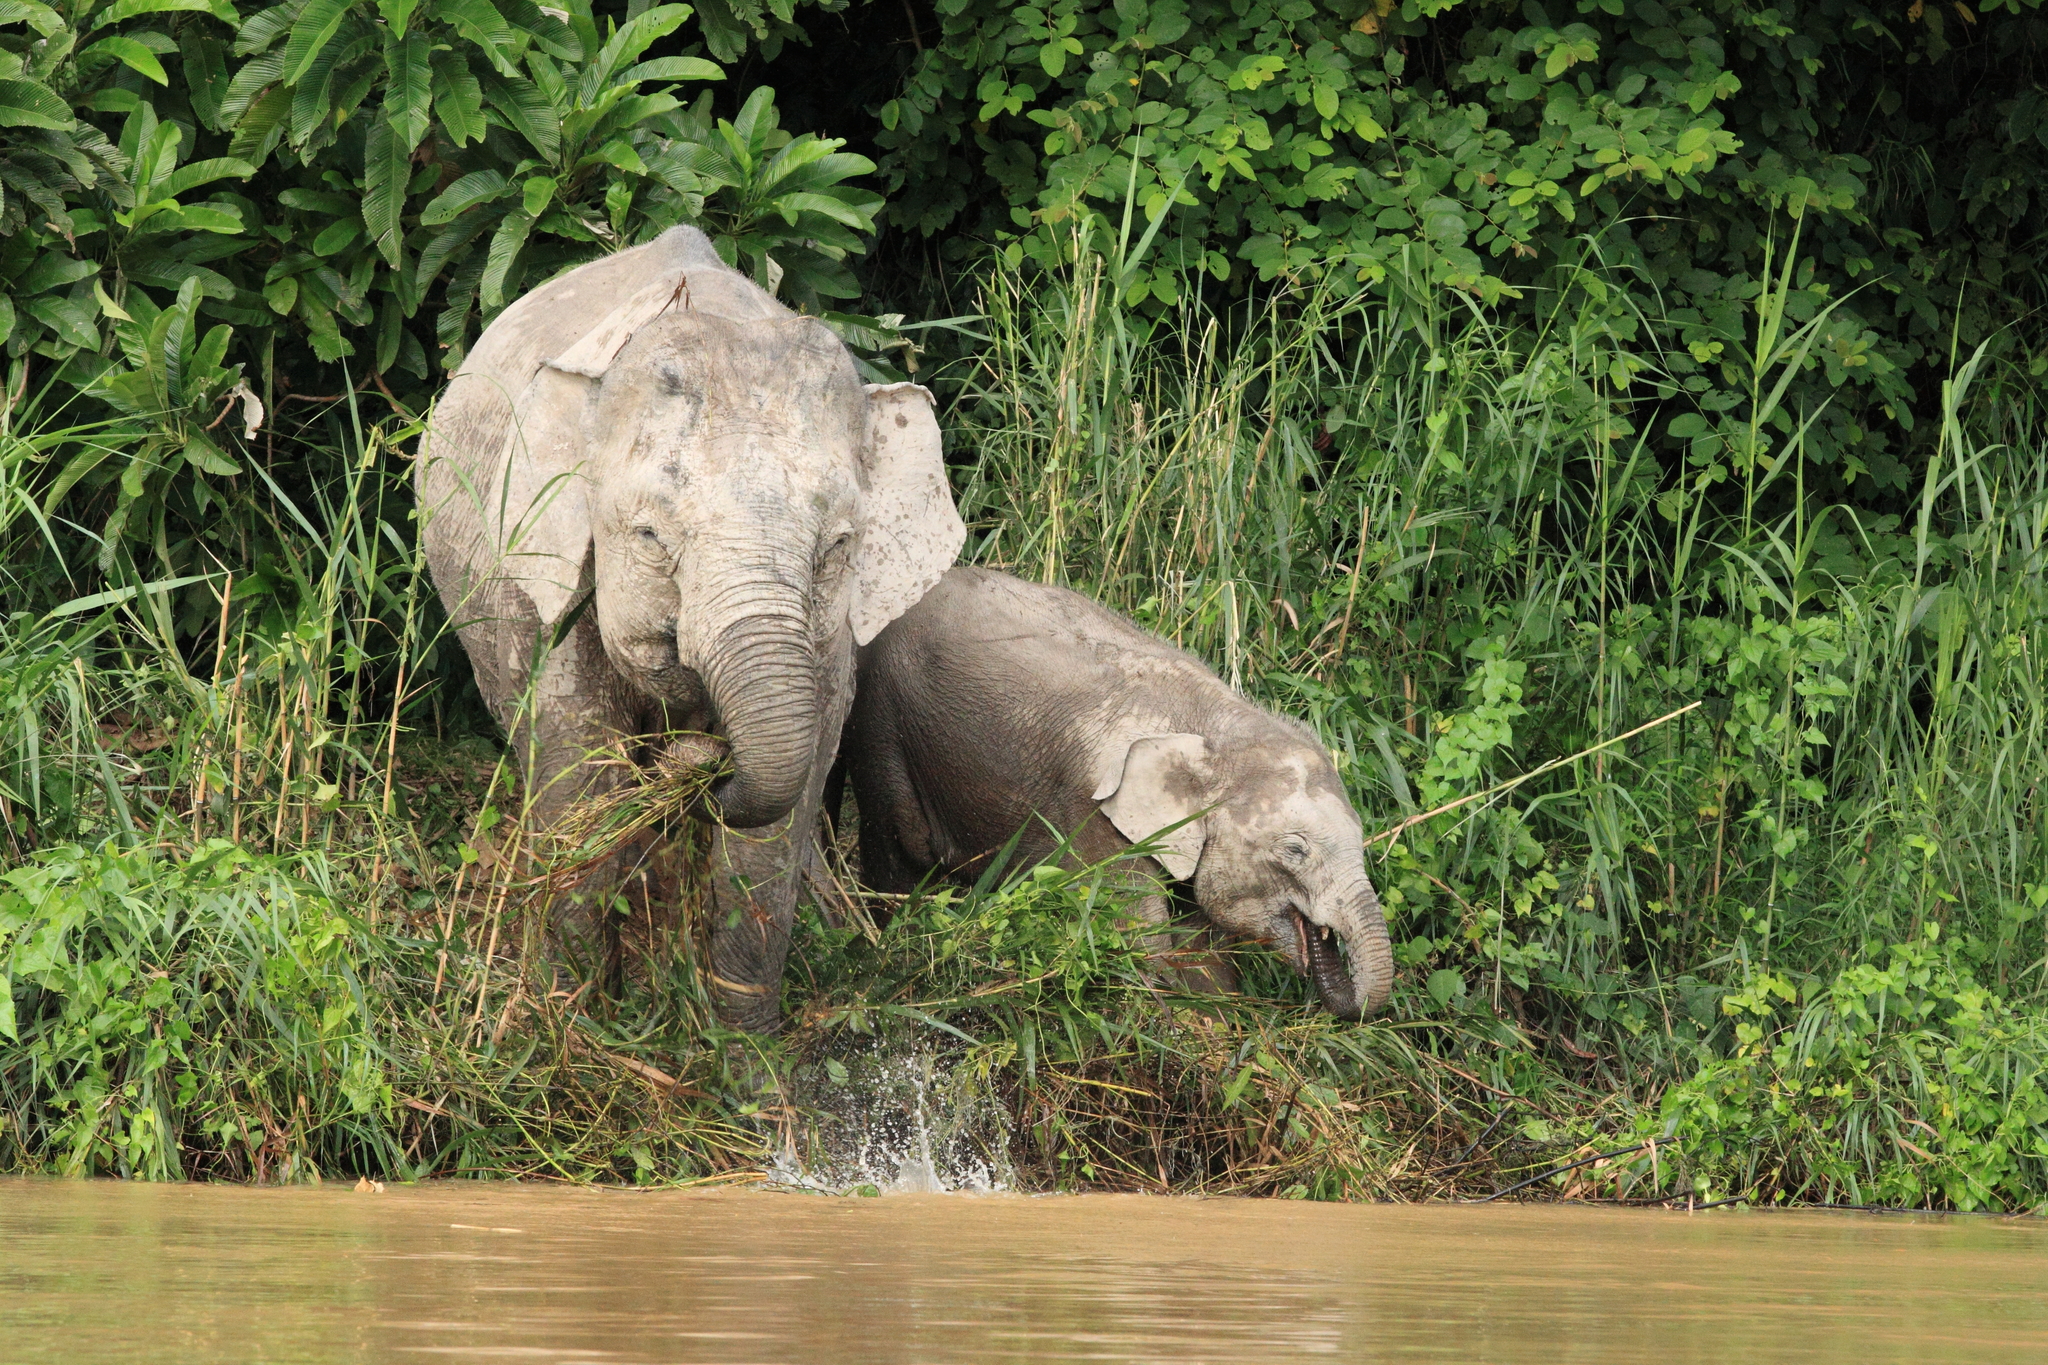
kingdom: Animalia
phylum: Chordata
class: Mammalia
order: Proboscidea
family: Elephantidae
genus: Elephas
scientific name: Elephas maximus
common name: Asian elephant
